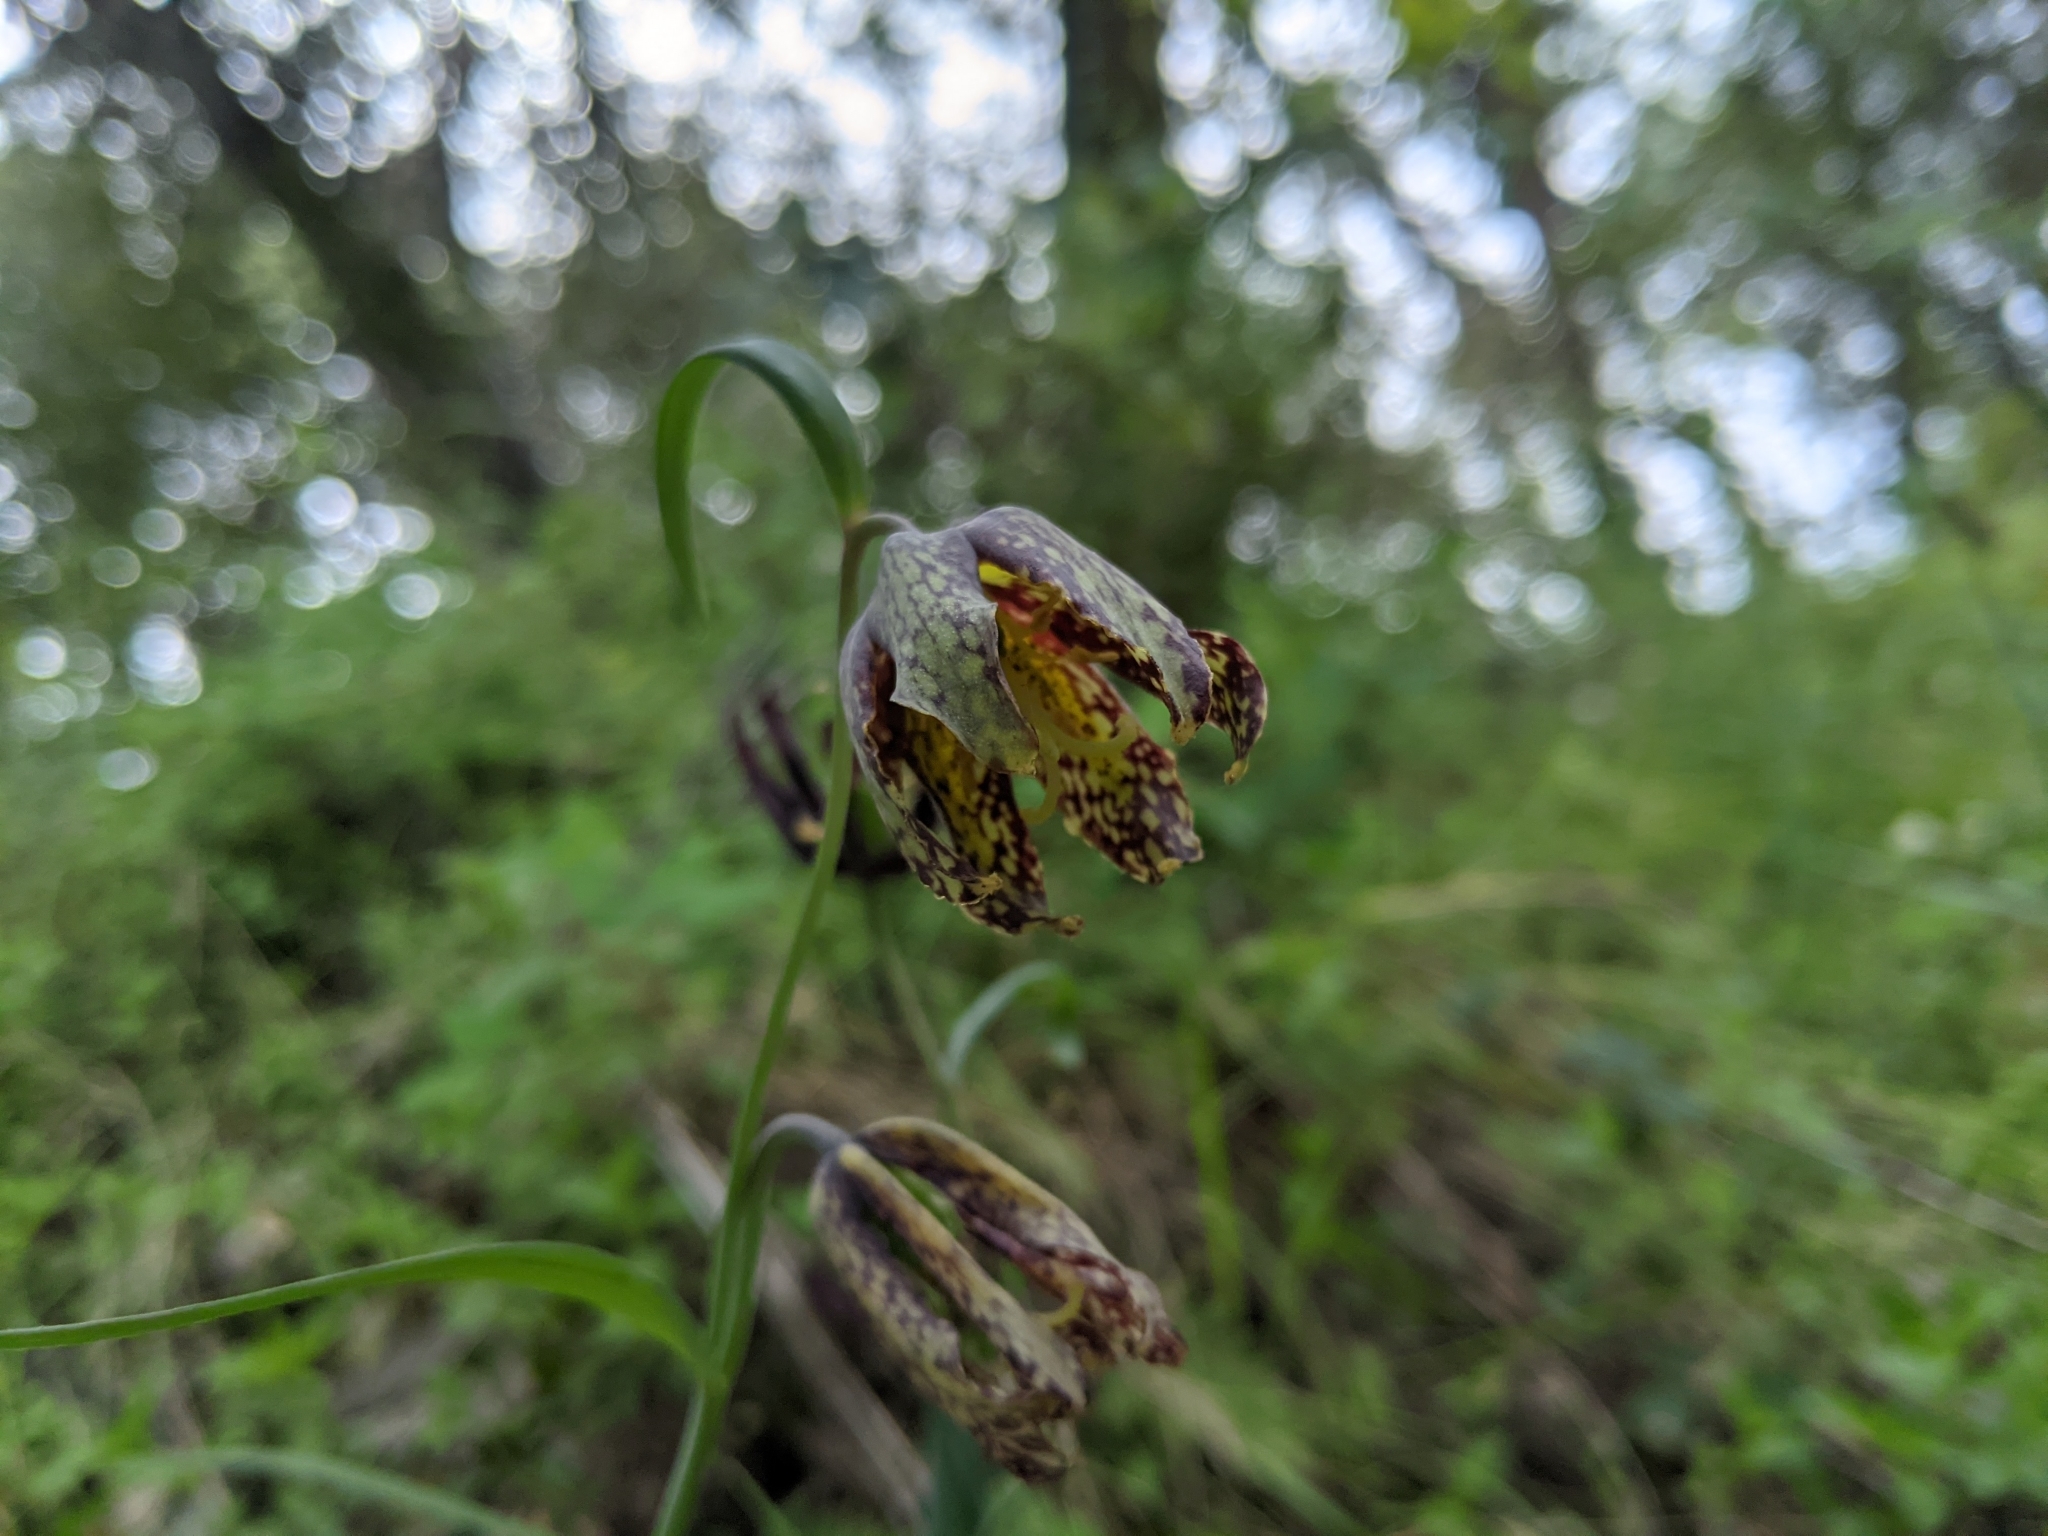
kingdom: Plantae
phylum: Tracheophyta
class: Liliopsida
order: Liliales
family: Liliaceae
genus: Fritillaria
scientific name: Fritillaria affinis
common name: Ojai fritillary
